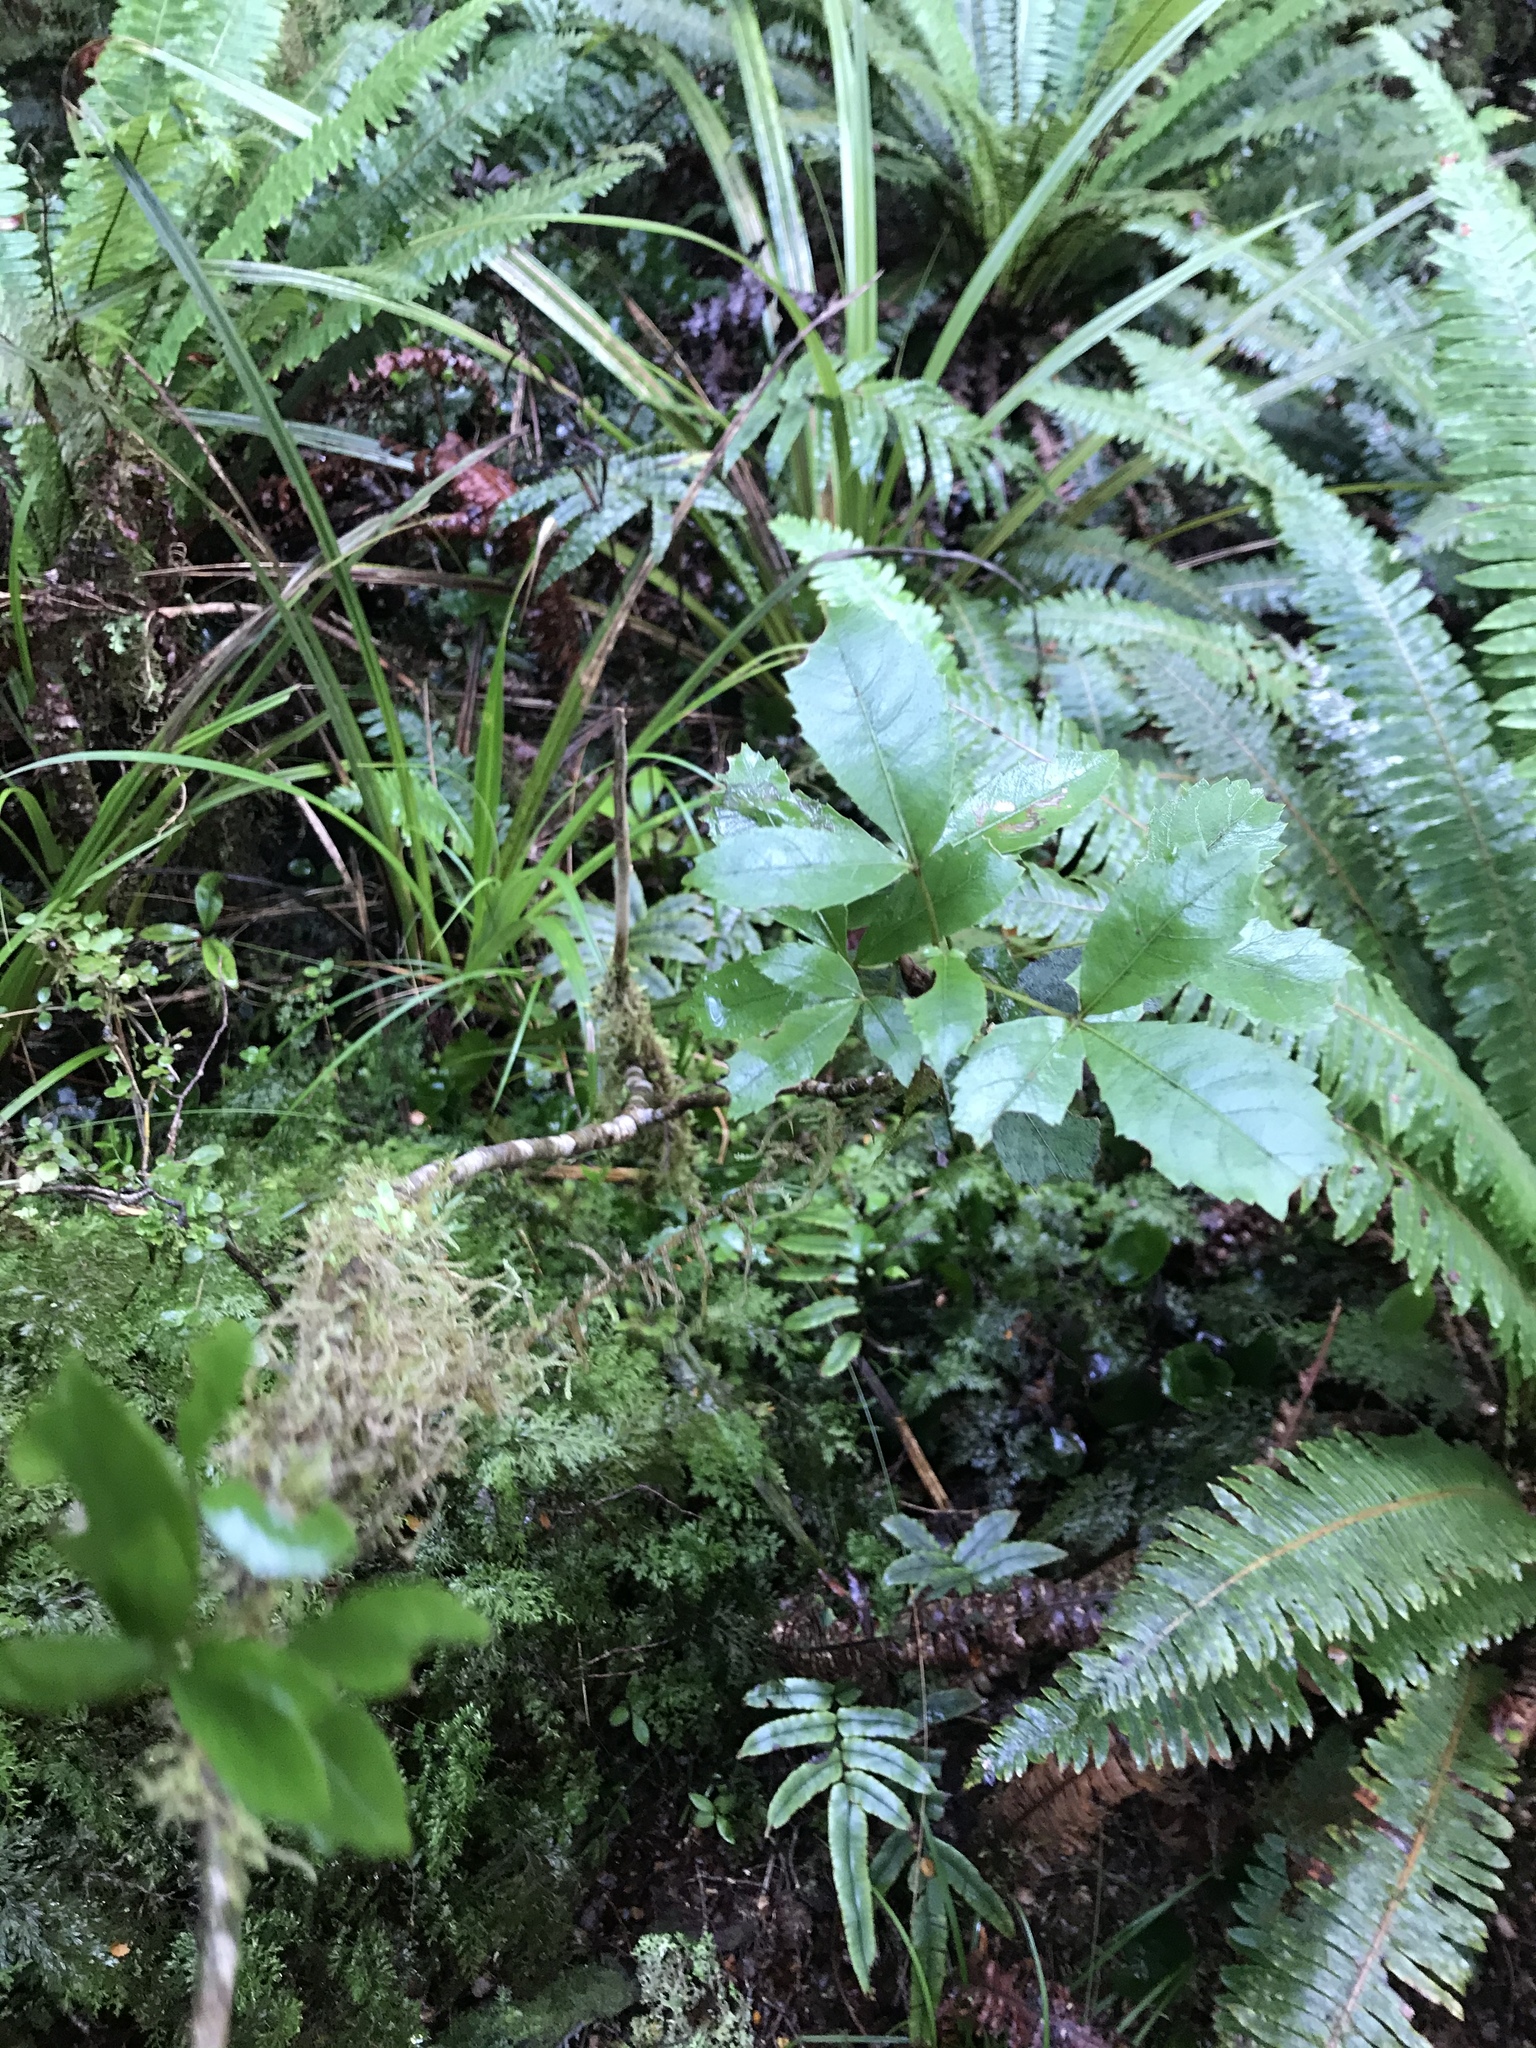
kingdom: Plantae
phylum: Tracheophyta
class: Magnoliopsida
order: Apiales
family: Araliaceae
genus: Neopanax
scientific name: Neopanax colensoi
